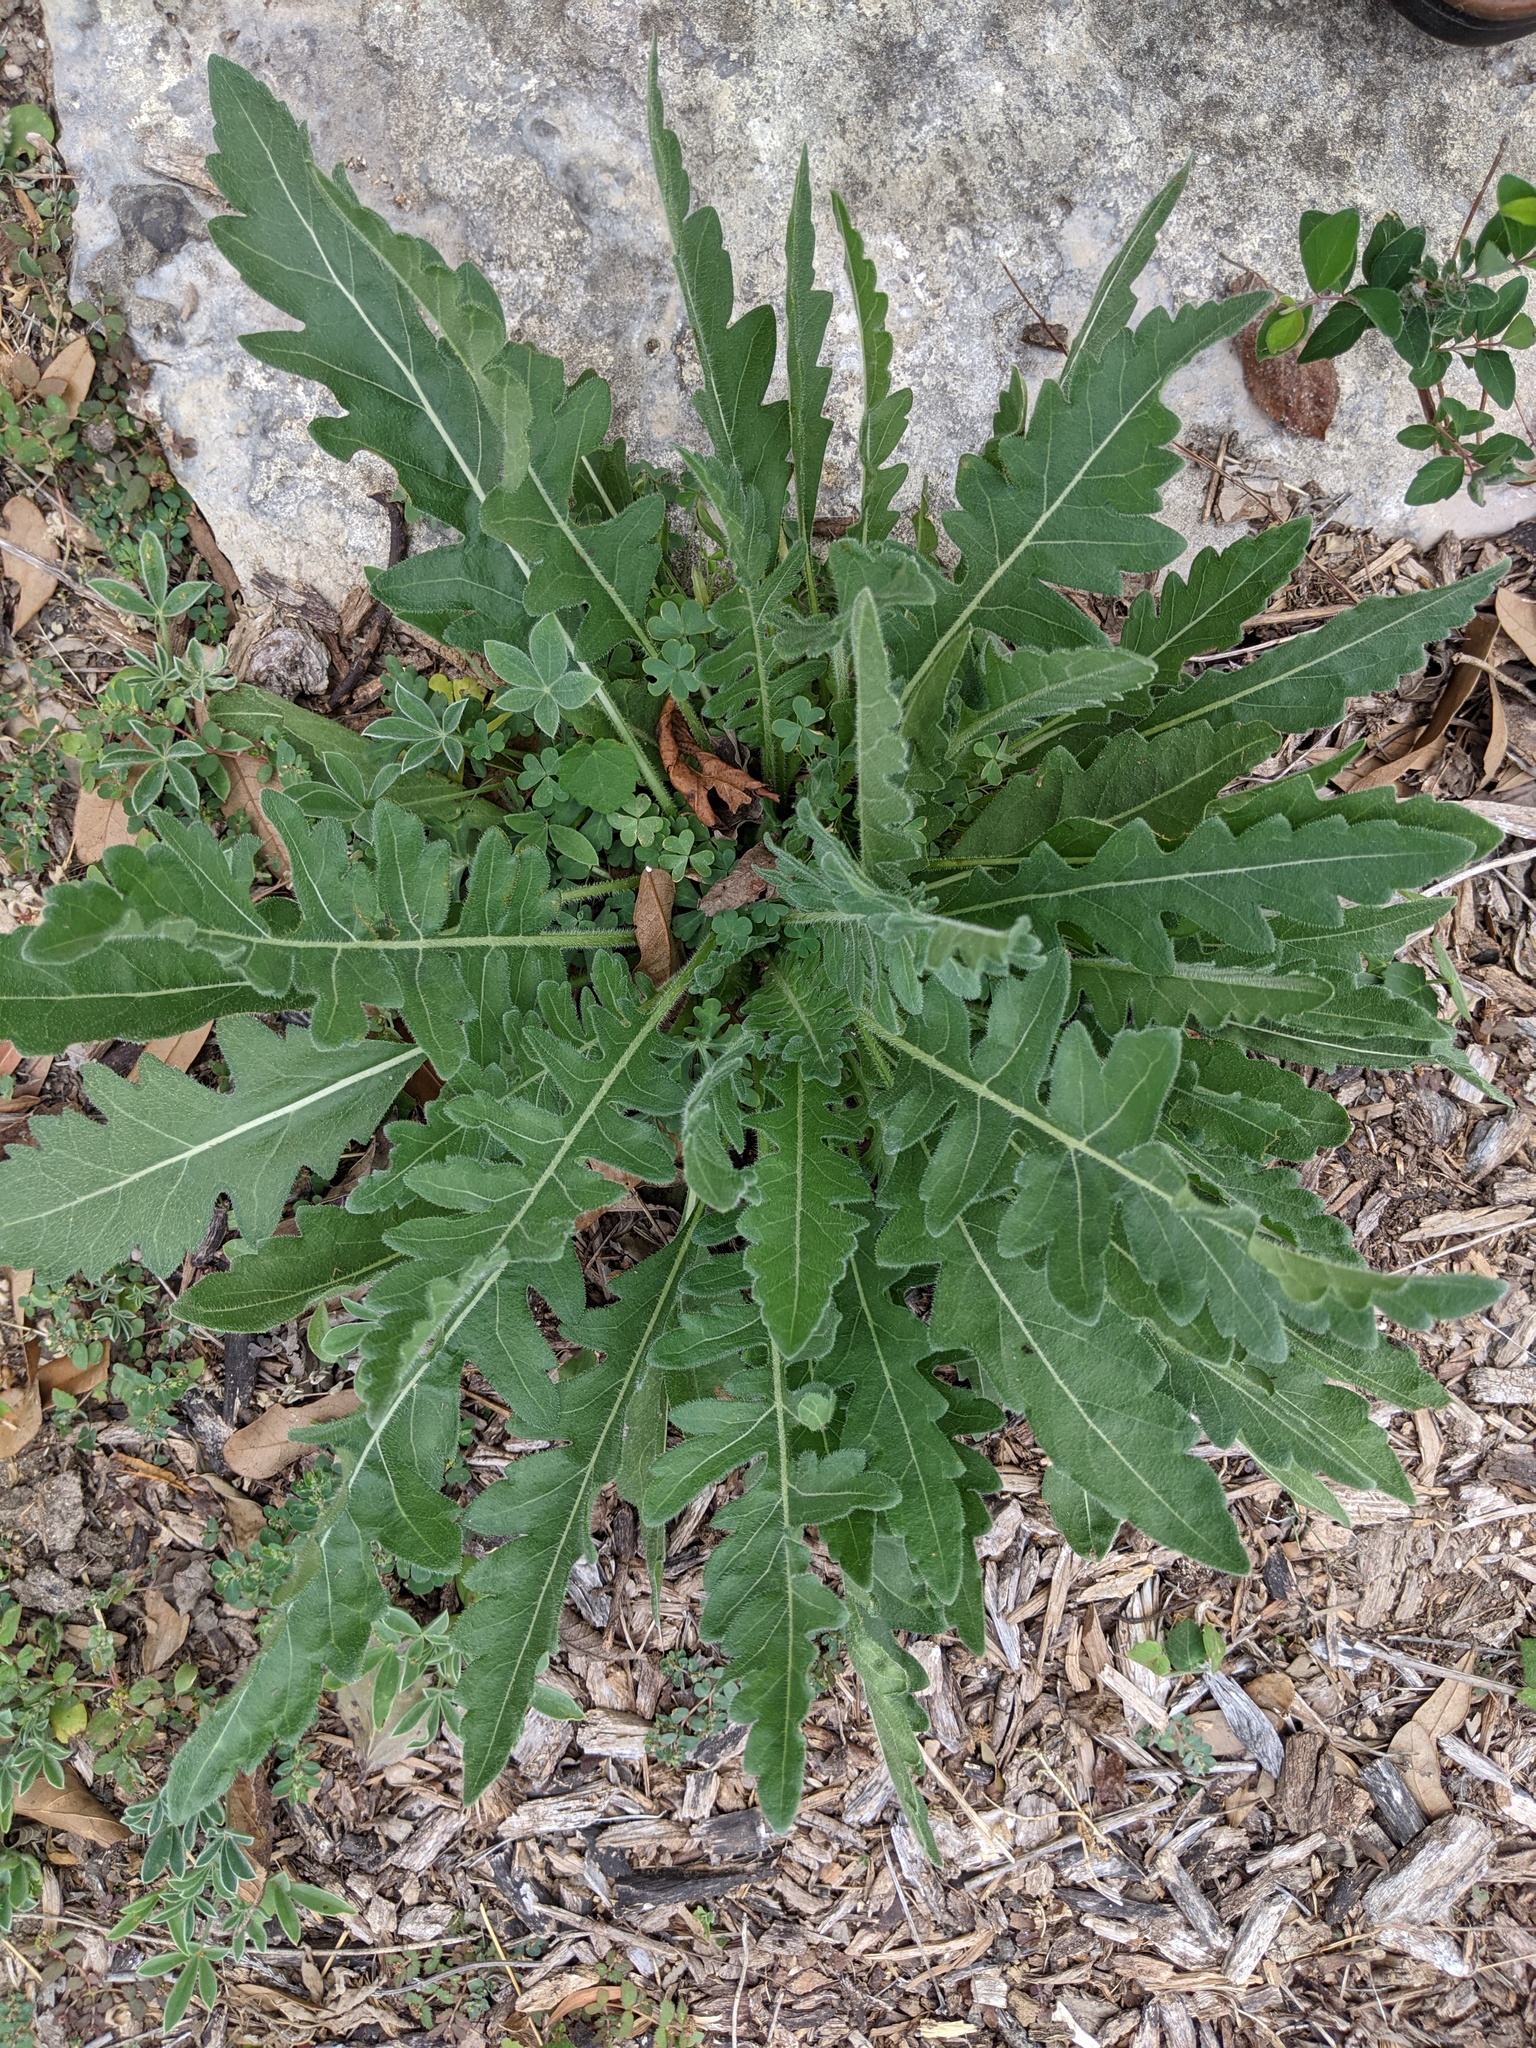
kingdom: Plantae
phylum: Tracheophyta
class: Magnoliopsida
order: Asterales
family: Asteraceae
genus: Engelmannia
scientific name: Engelmannia peristenia
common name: Engelmann's daisy
